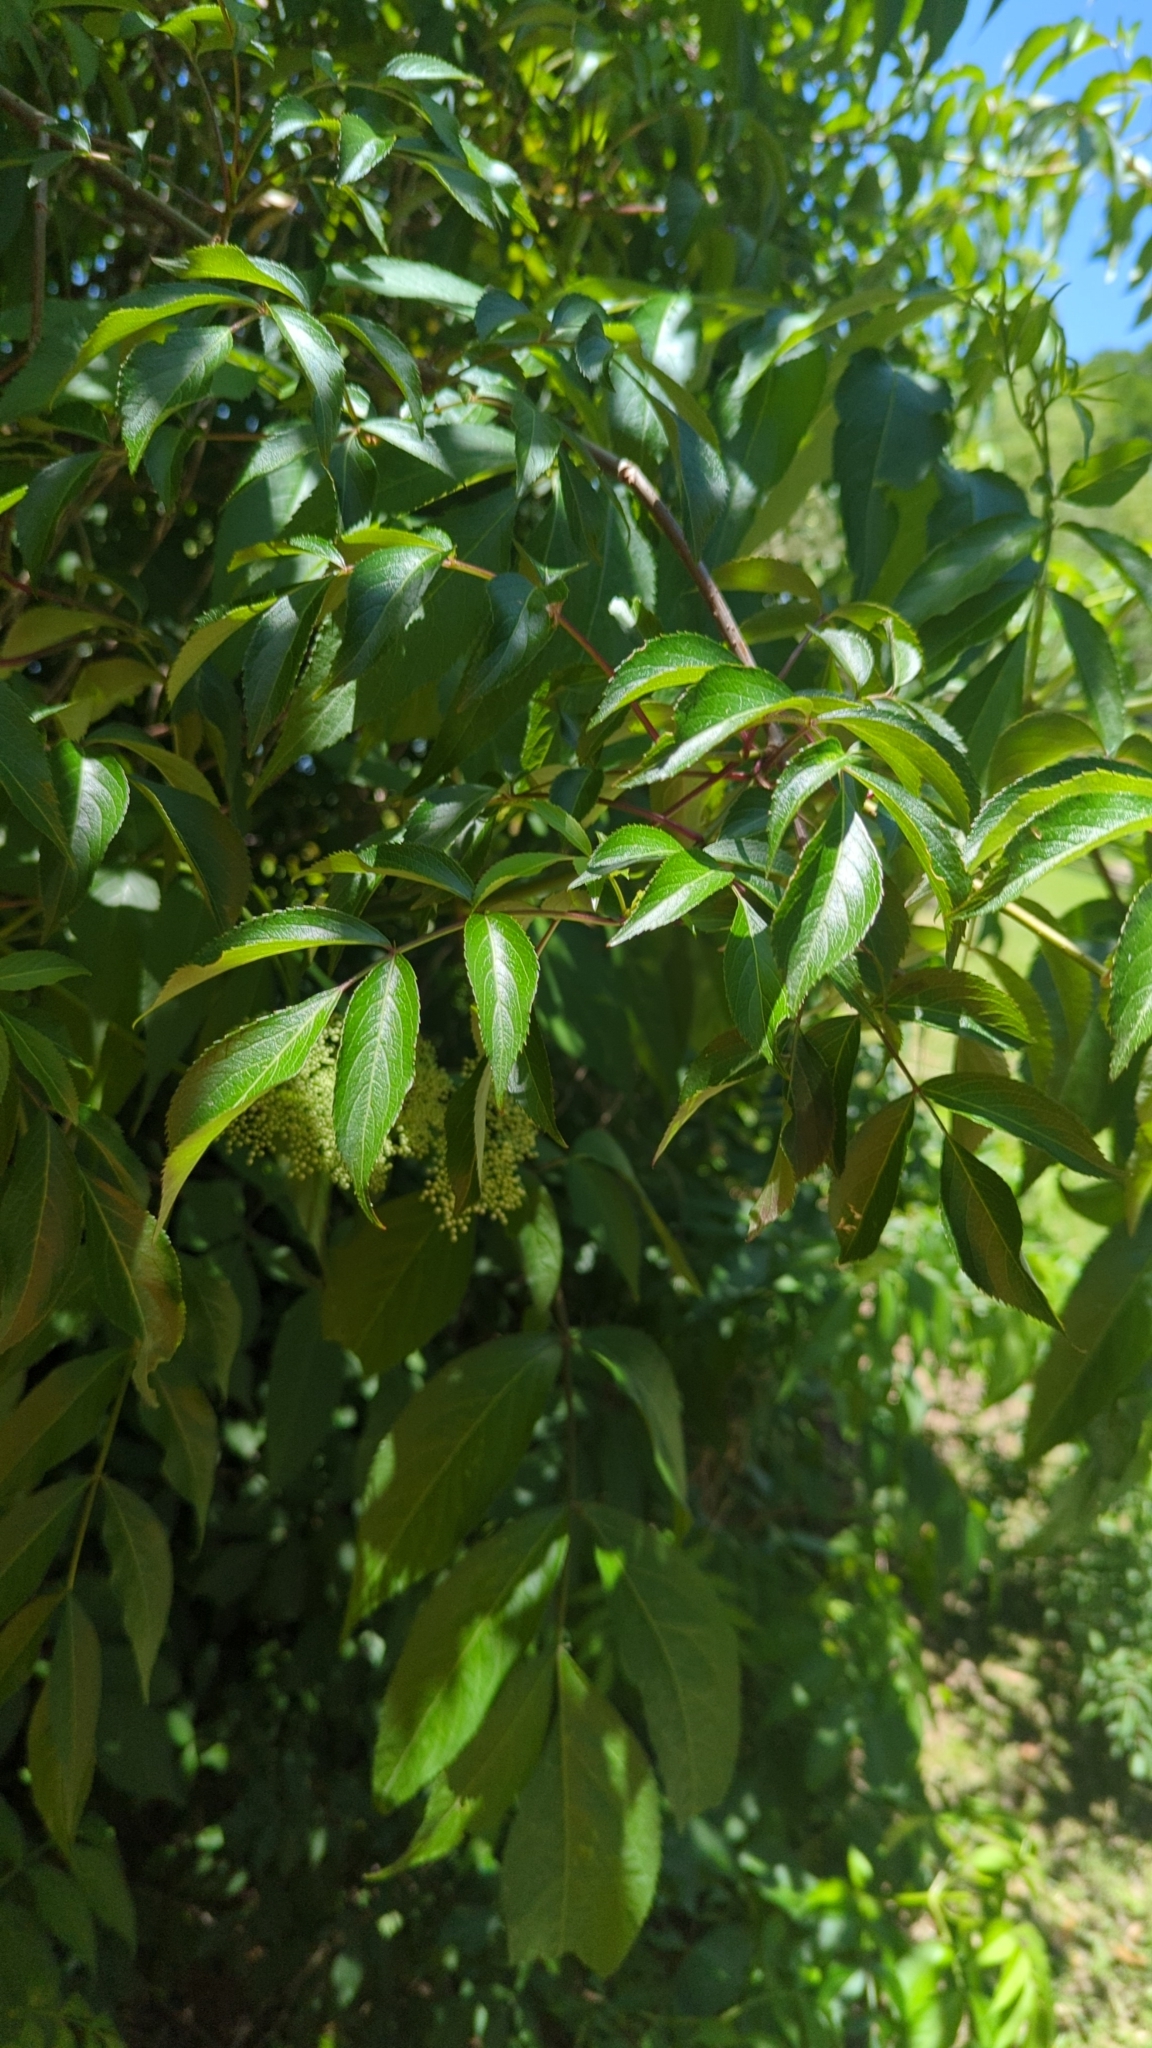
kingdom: Plantae
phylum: Tracheophyta
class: Magnoliopsida
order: Dipsacales
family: Viburnaceae
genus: Sambucus
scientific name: Sambucus canadensis
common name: American elder
